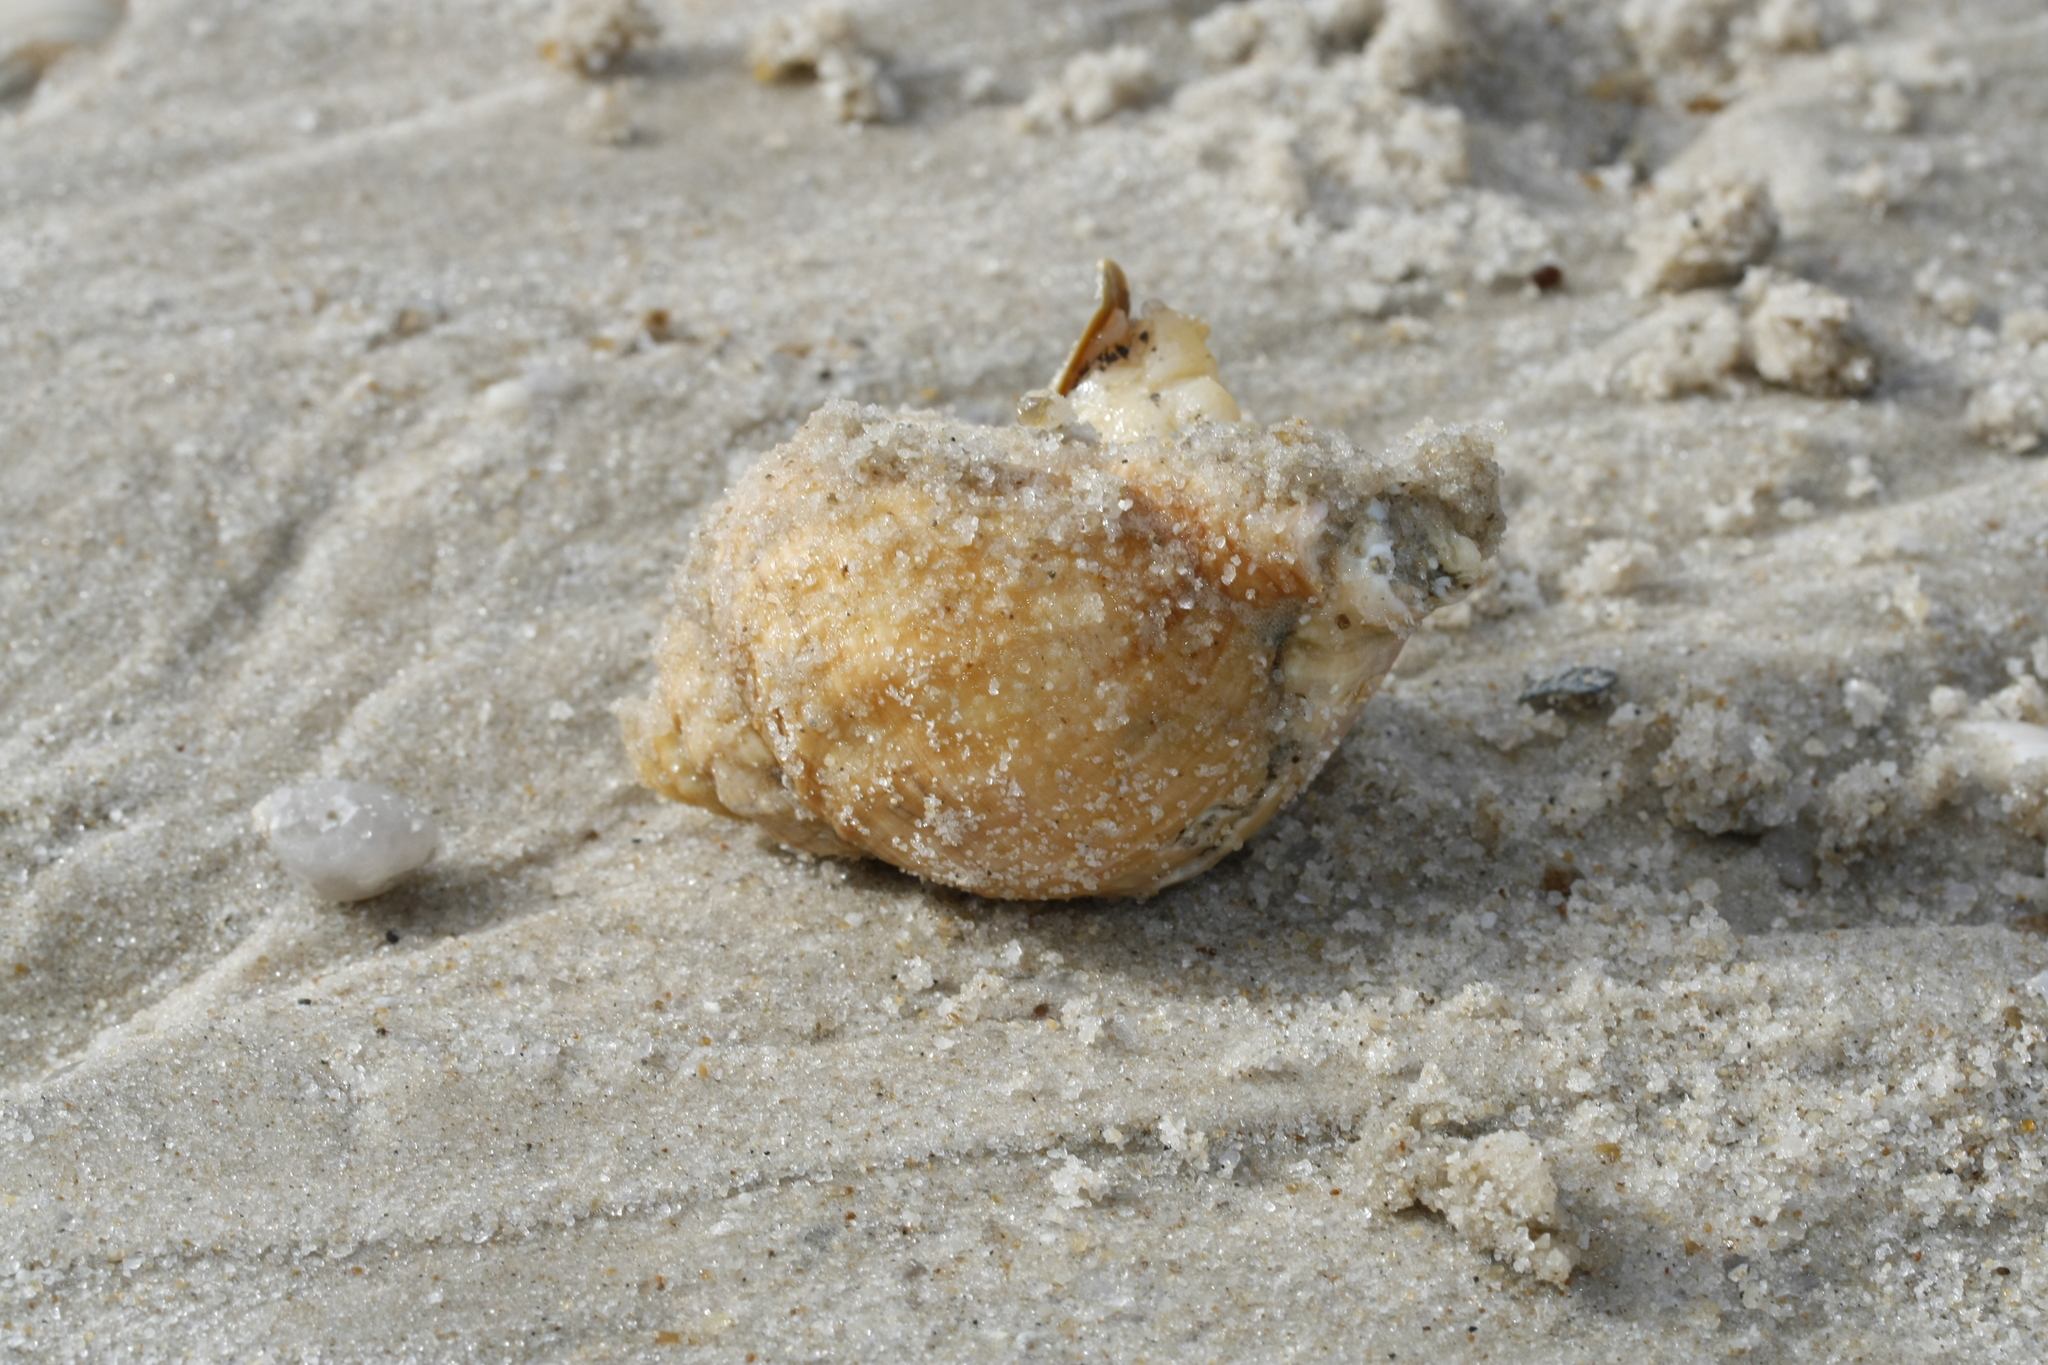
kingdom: Animalia
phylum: Mollusca
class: Gastropoda
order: Neogastropoda
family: Buccinidae
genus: Buccinum
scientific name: Buccinum undatum
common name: Common whelk
